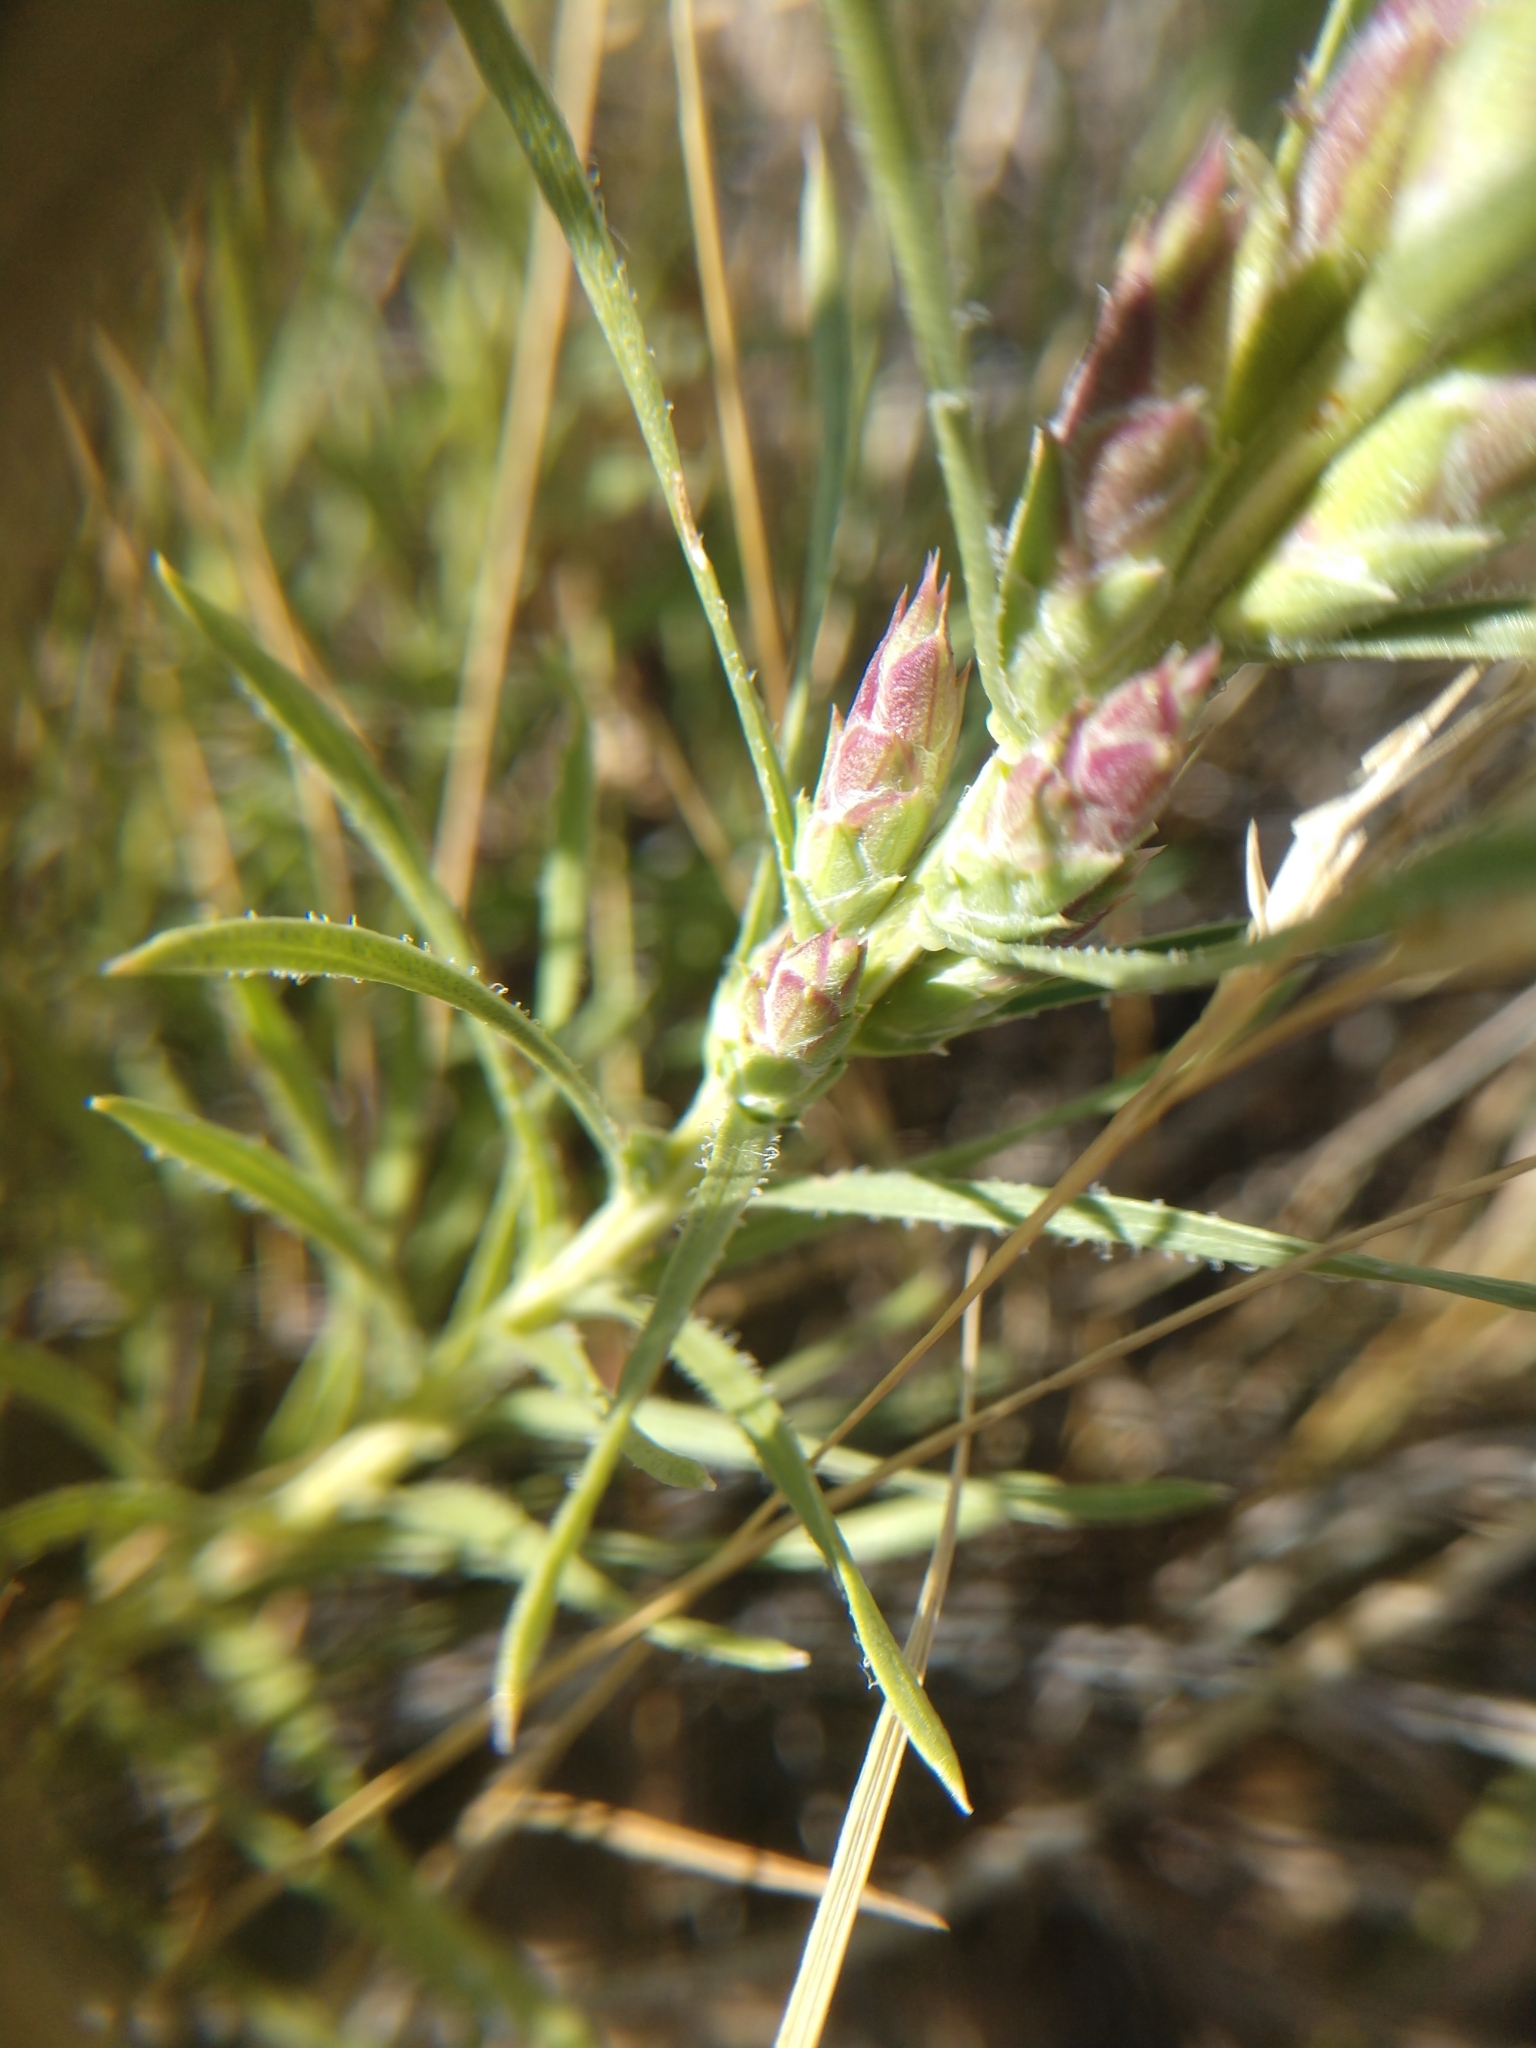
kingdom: Plantae
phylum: Tracheophyta
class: Magnoliopsida
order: Asterales
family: Asteraceae
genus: Liatris
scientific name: Liatris punctata
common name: Dotted gayfeather
